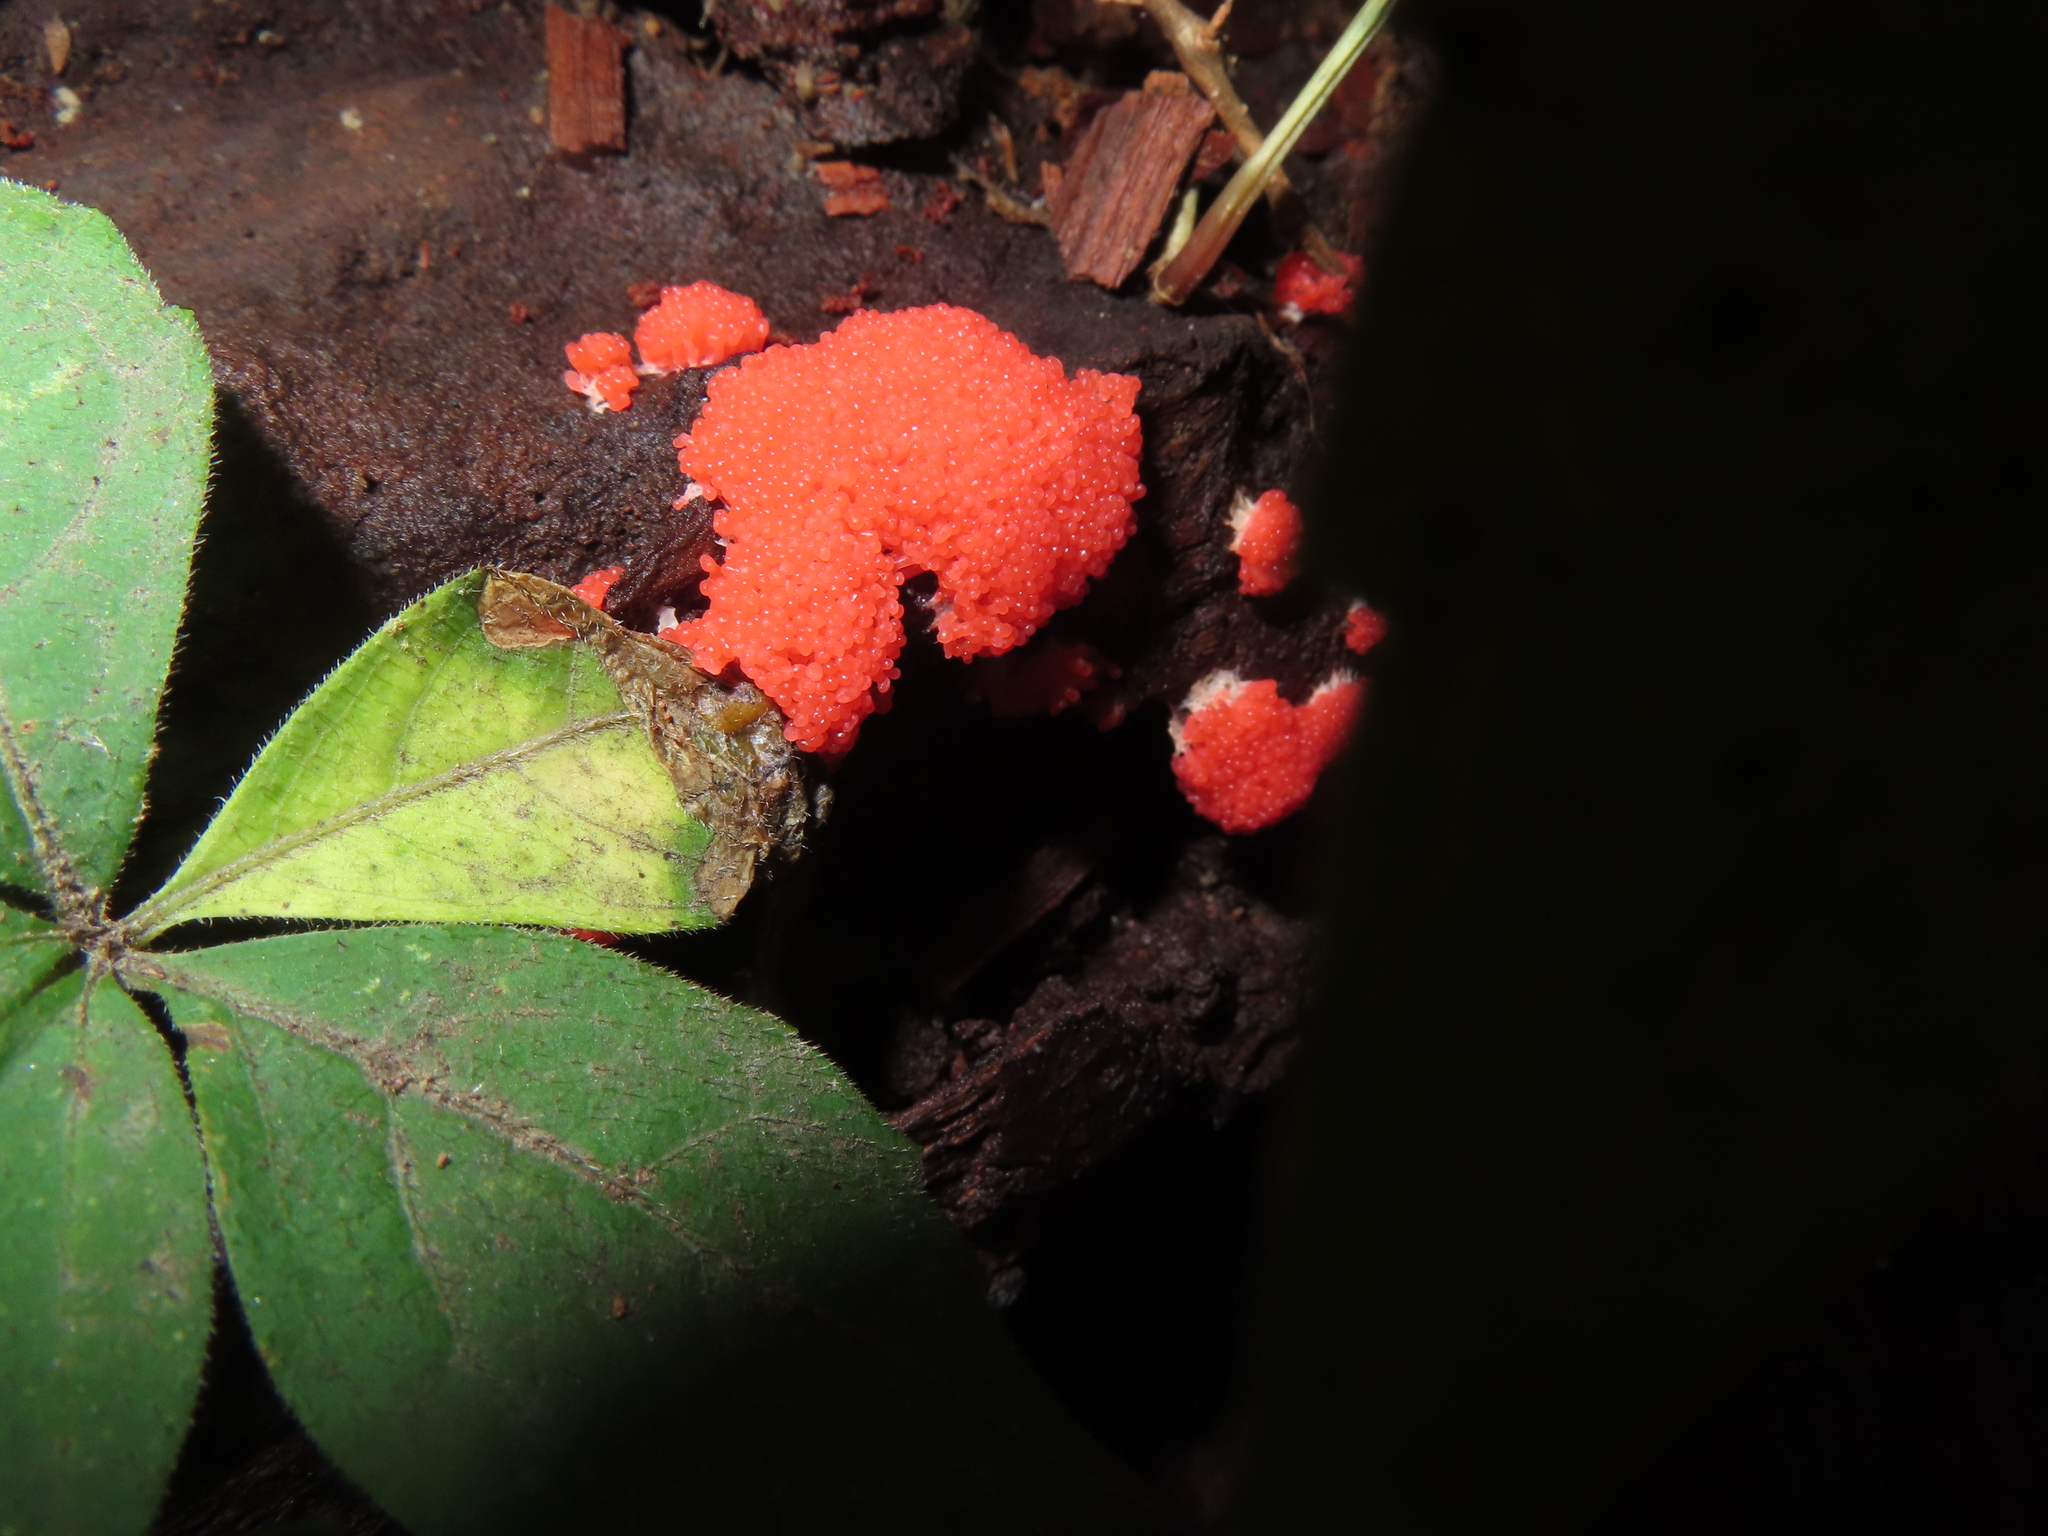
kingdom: Protozoa
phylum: Mycetozoa
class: Myxomycetes
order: Cribrariales
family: Tubiferaceae
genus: Tubifera
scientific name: Tubifera ferruginosa
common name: Red raspberry slime mold
